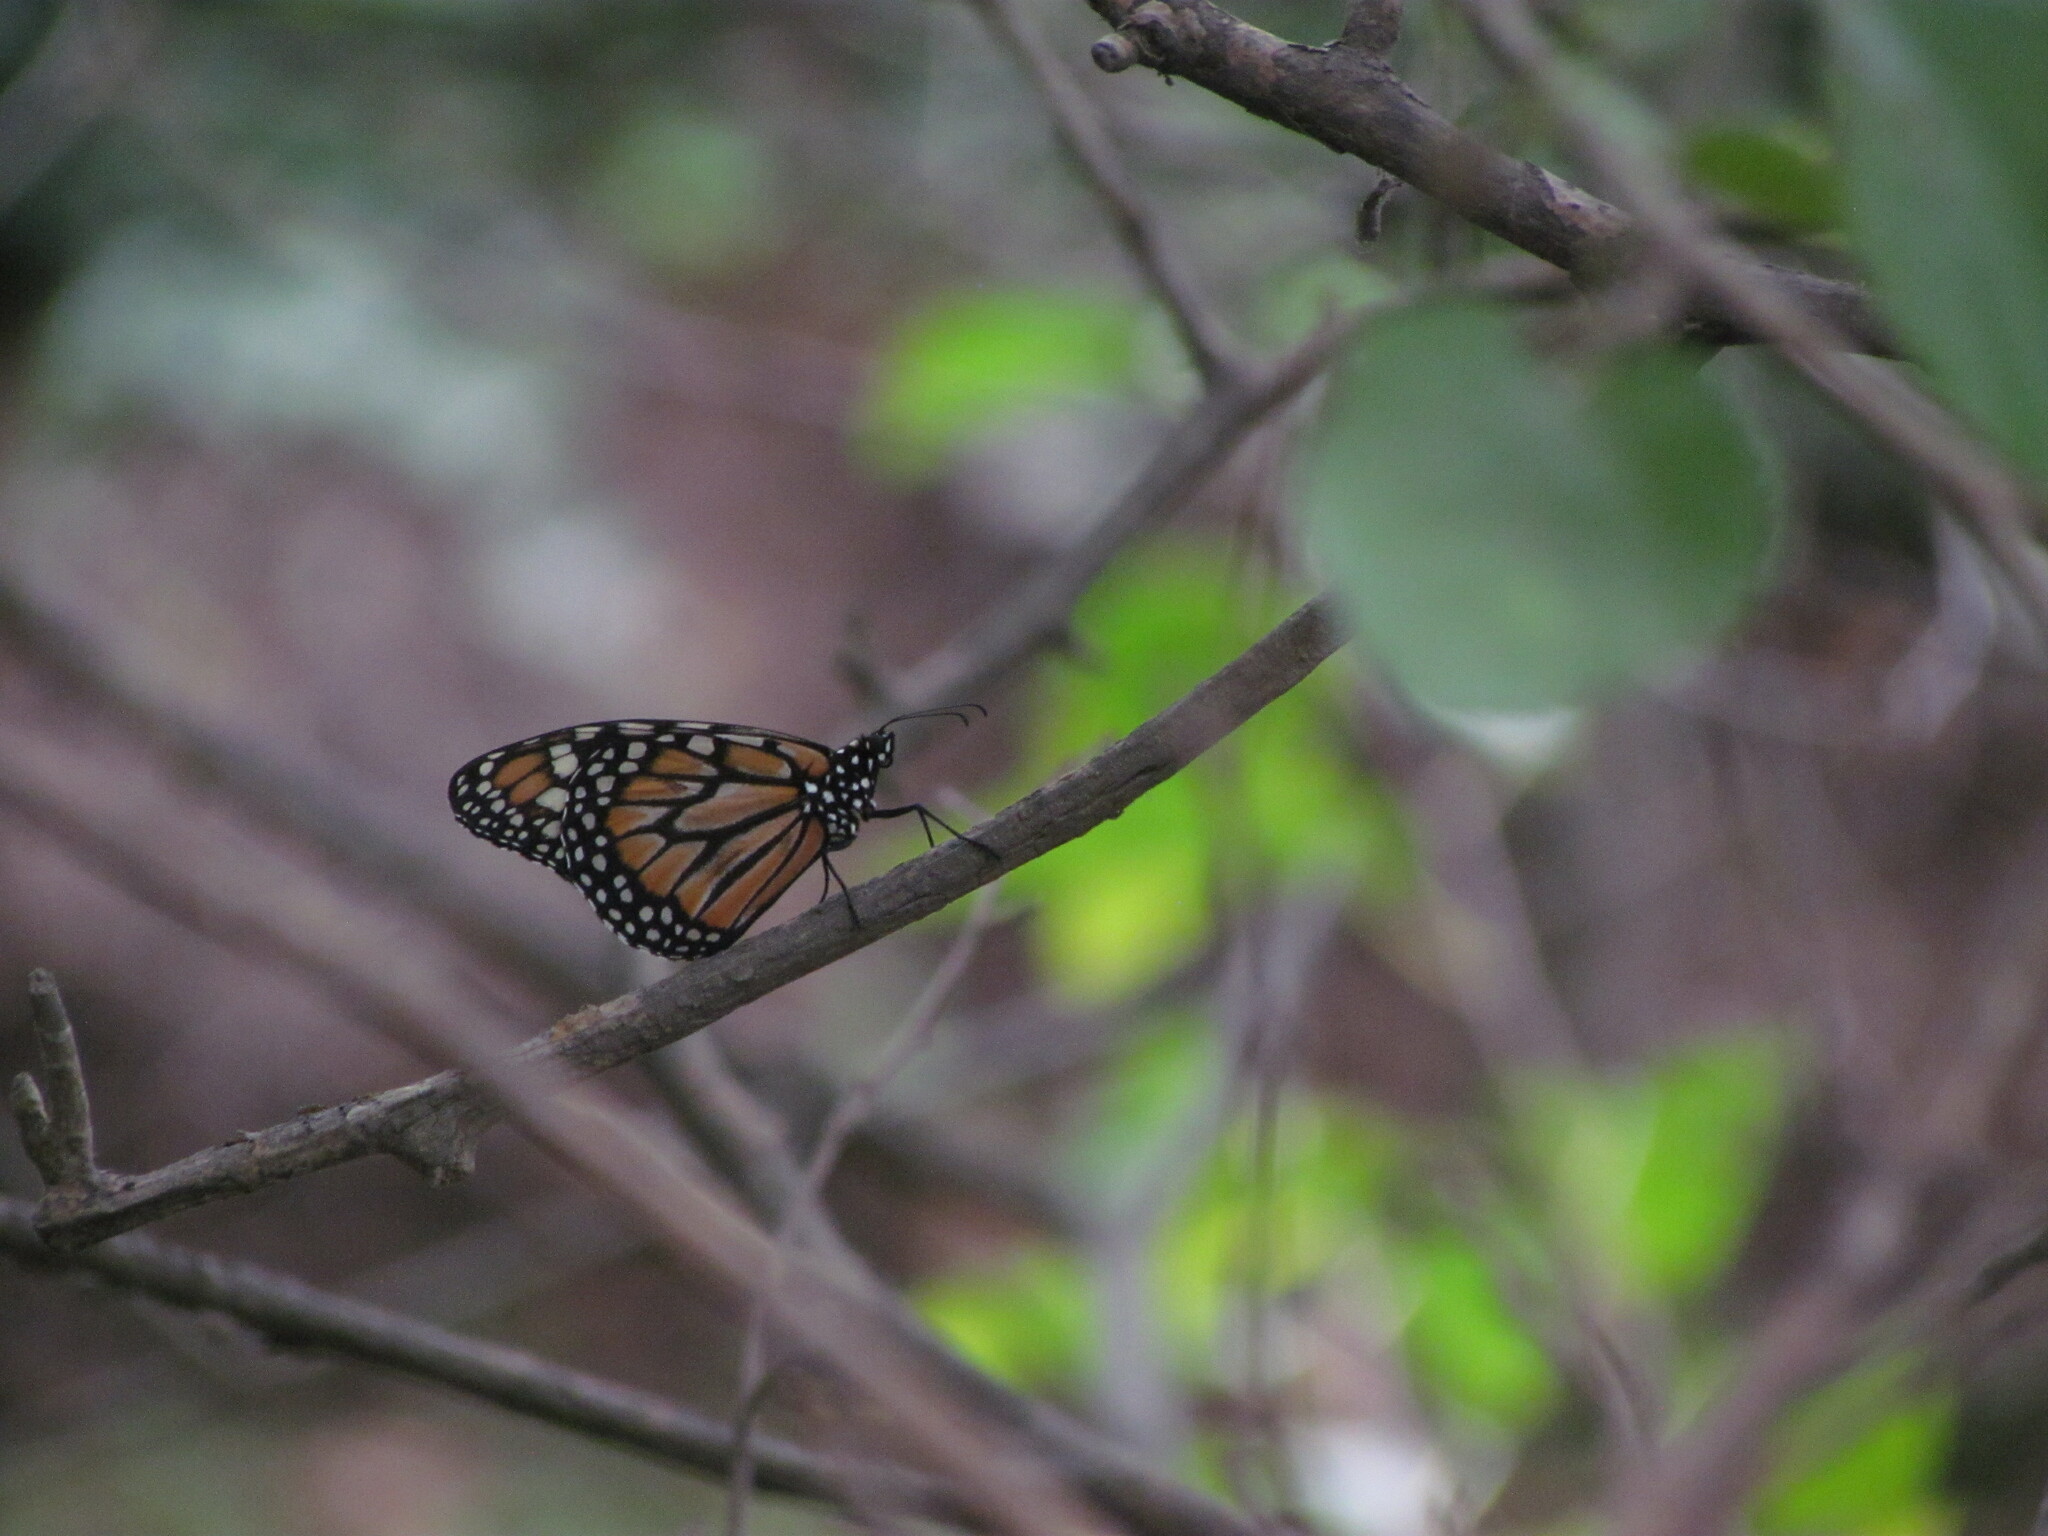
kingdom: Animalia
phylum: Arthropoda
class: Insecta
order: Lepidoptera
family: Nymphalidae
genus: Danaus
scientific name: Danaus erippus
